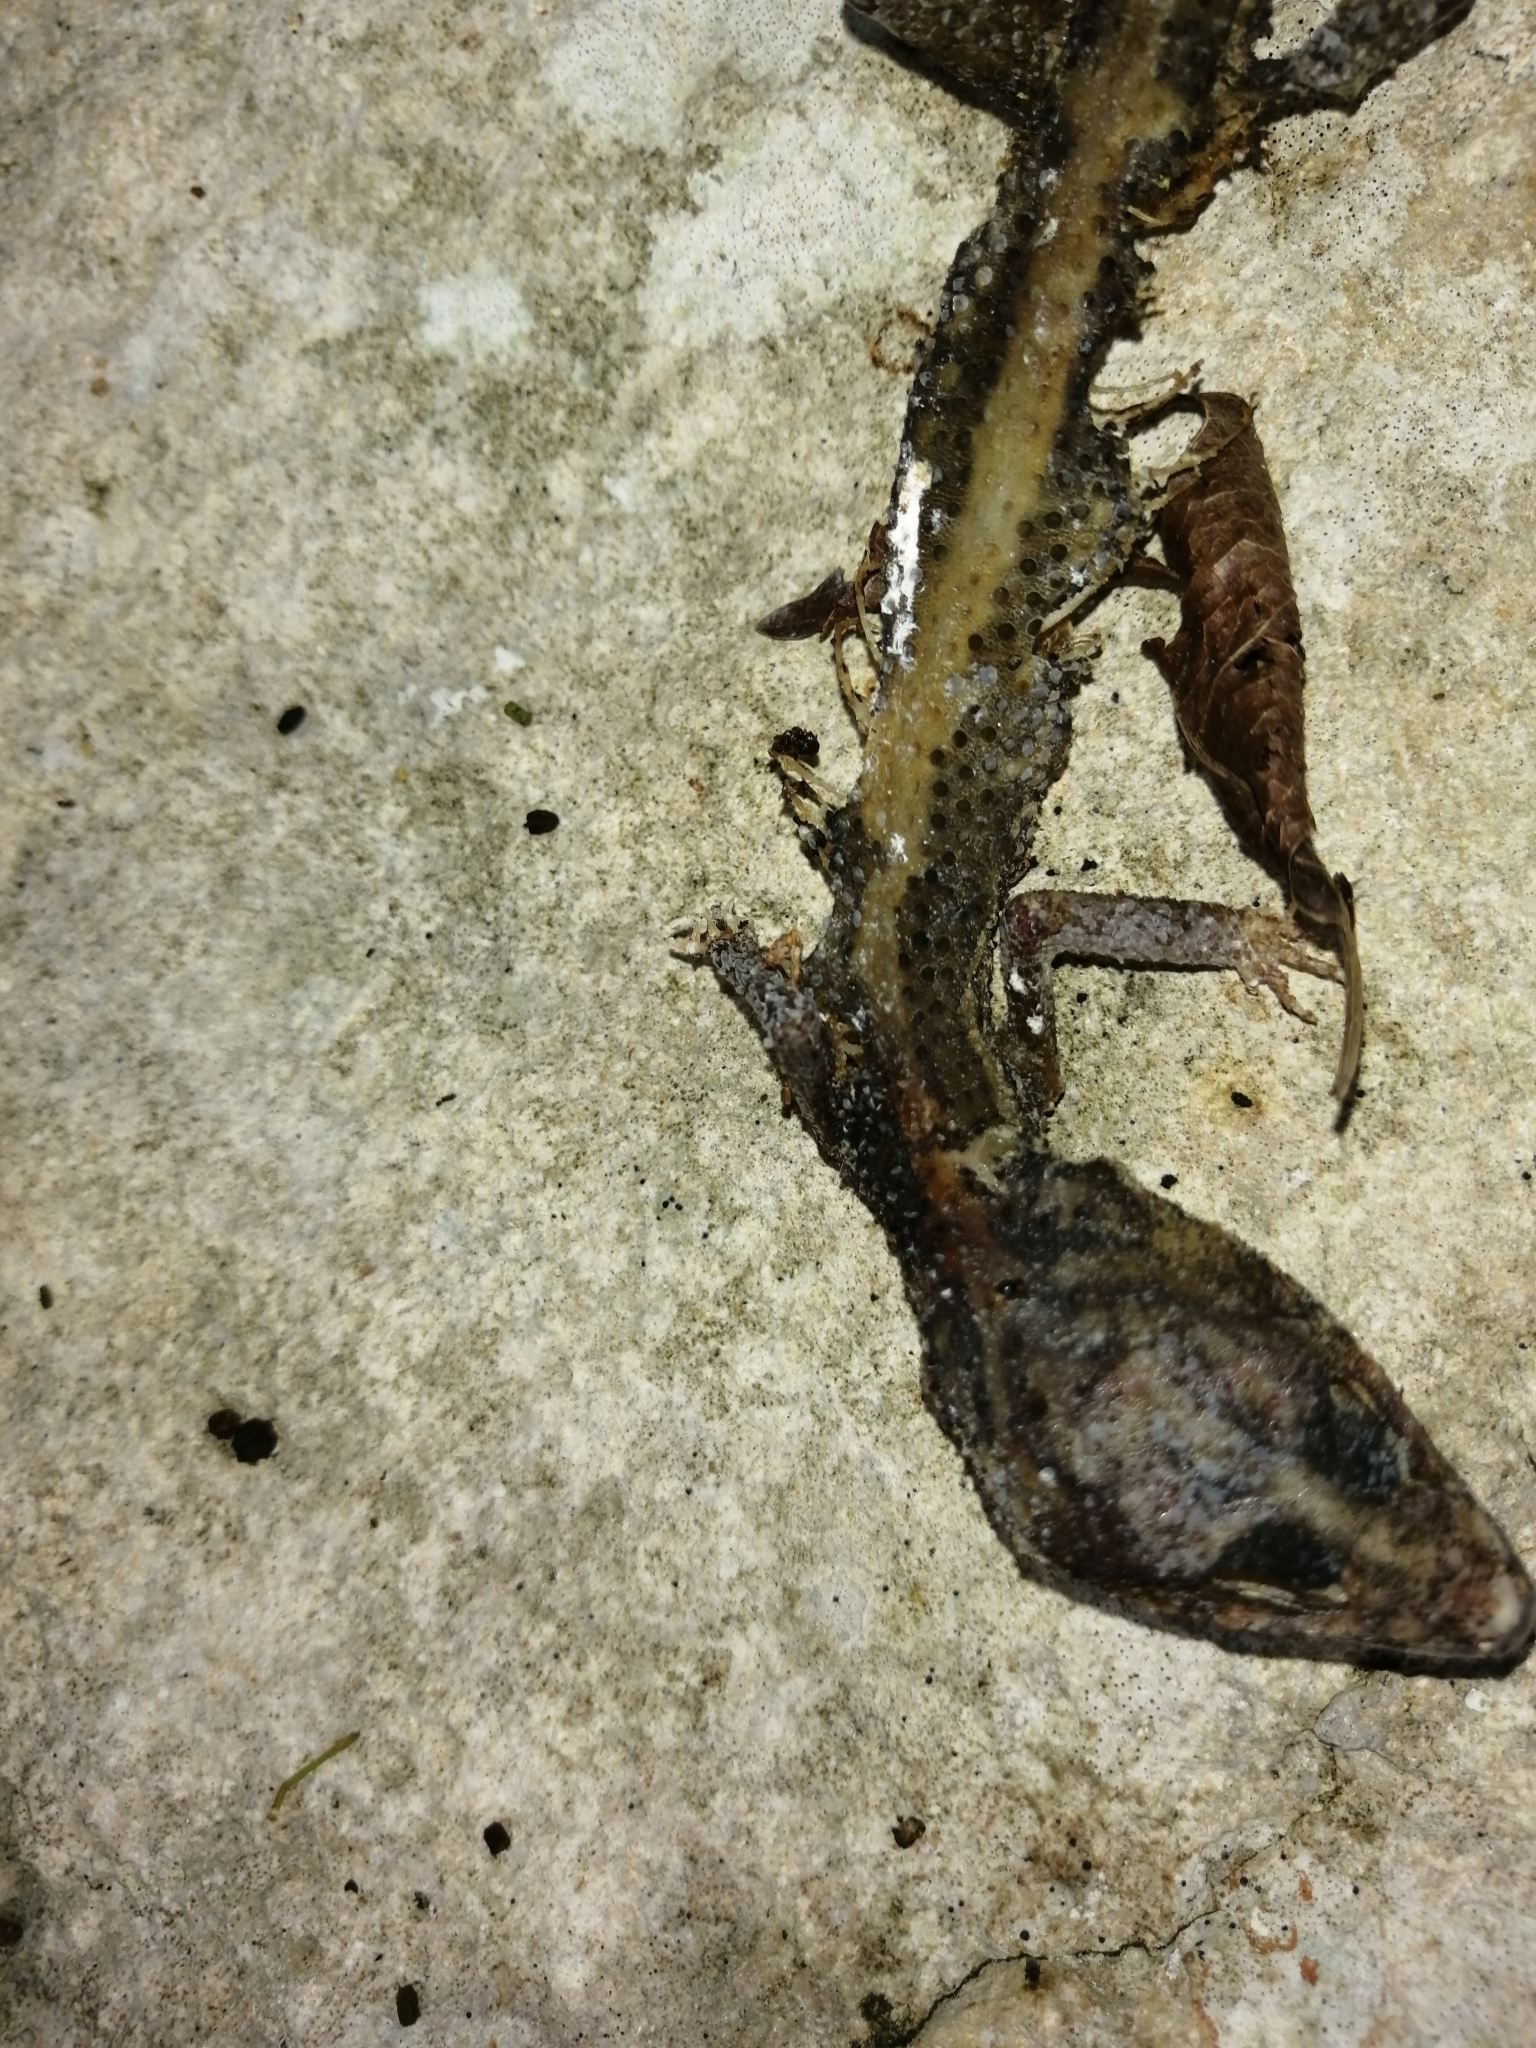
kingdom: Animalia
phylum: Chordata
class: Squamata
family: Eublepharidae
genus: Coleonyx
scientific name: Coleonyx elegans
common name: Yucatan banded gecko
